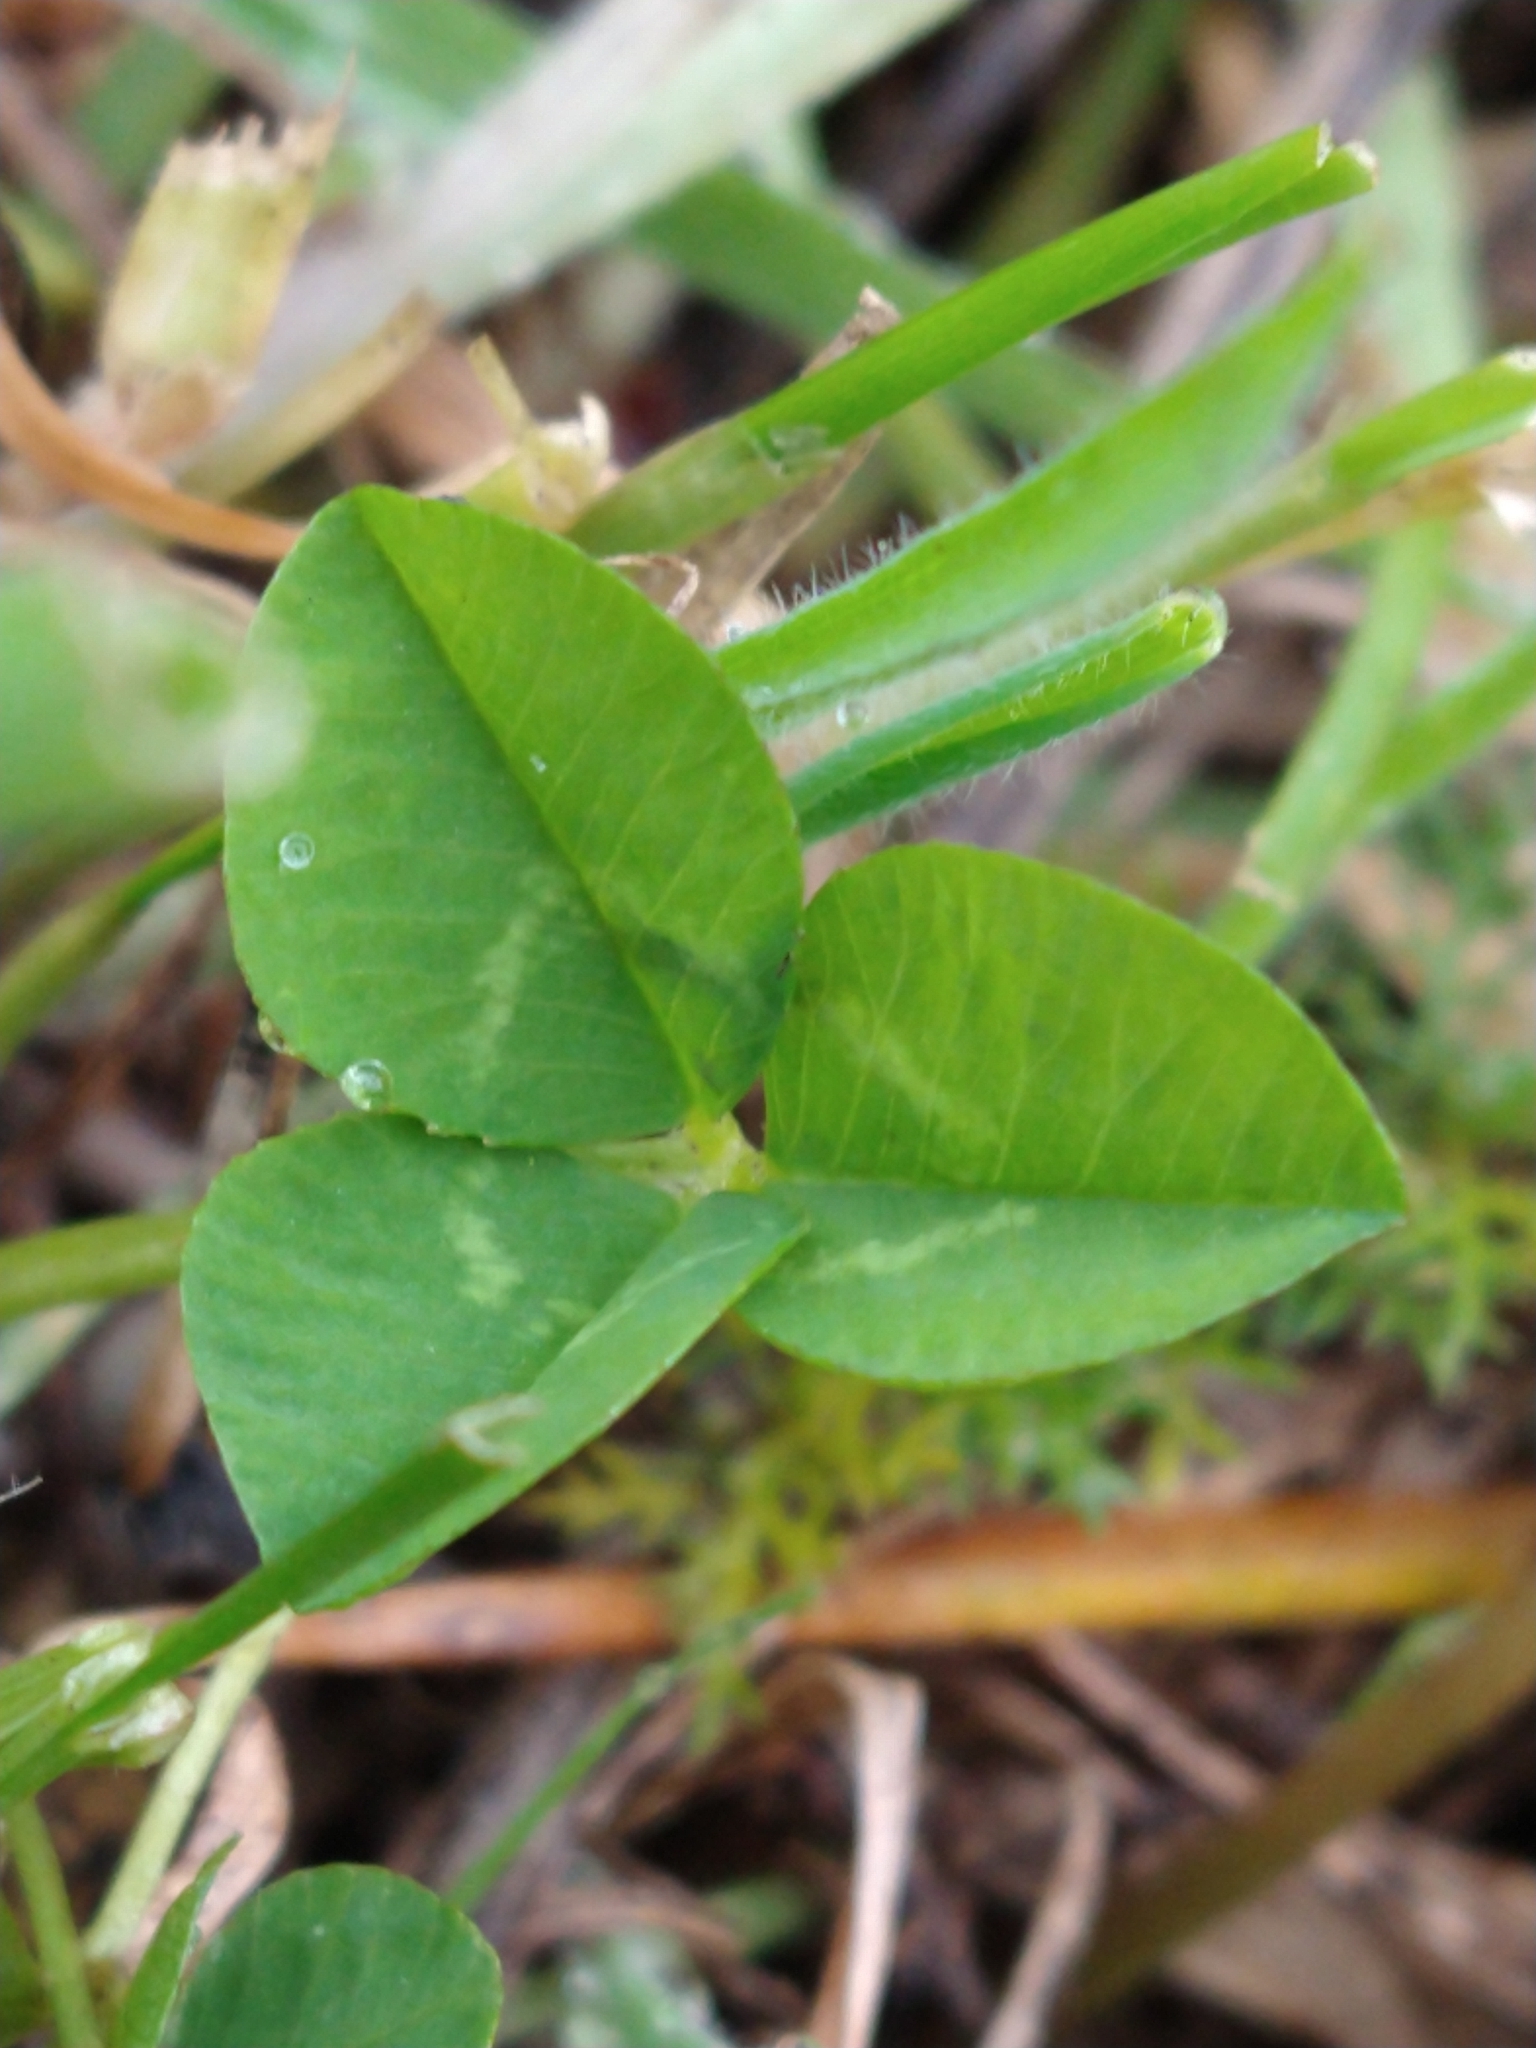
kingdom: Plantae
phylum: Tracheophyta
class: Magnoliopsida
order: Fabales
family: Fabaceae
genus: Trifolium
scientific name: Trifolium repens
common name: White clover
